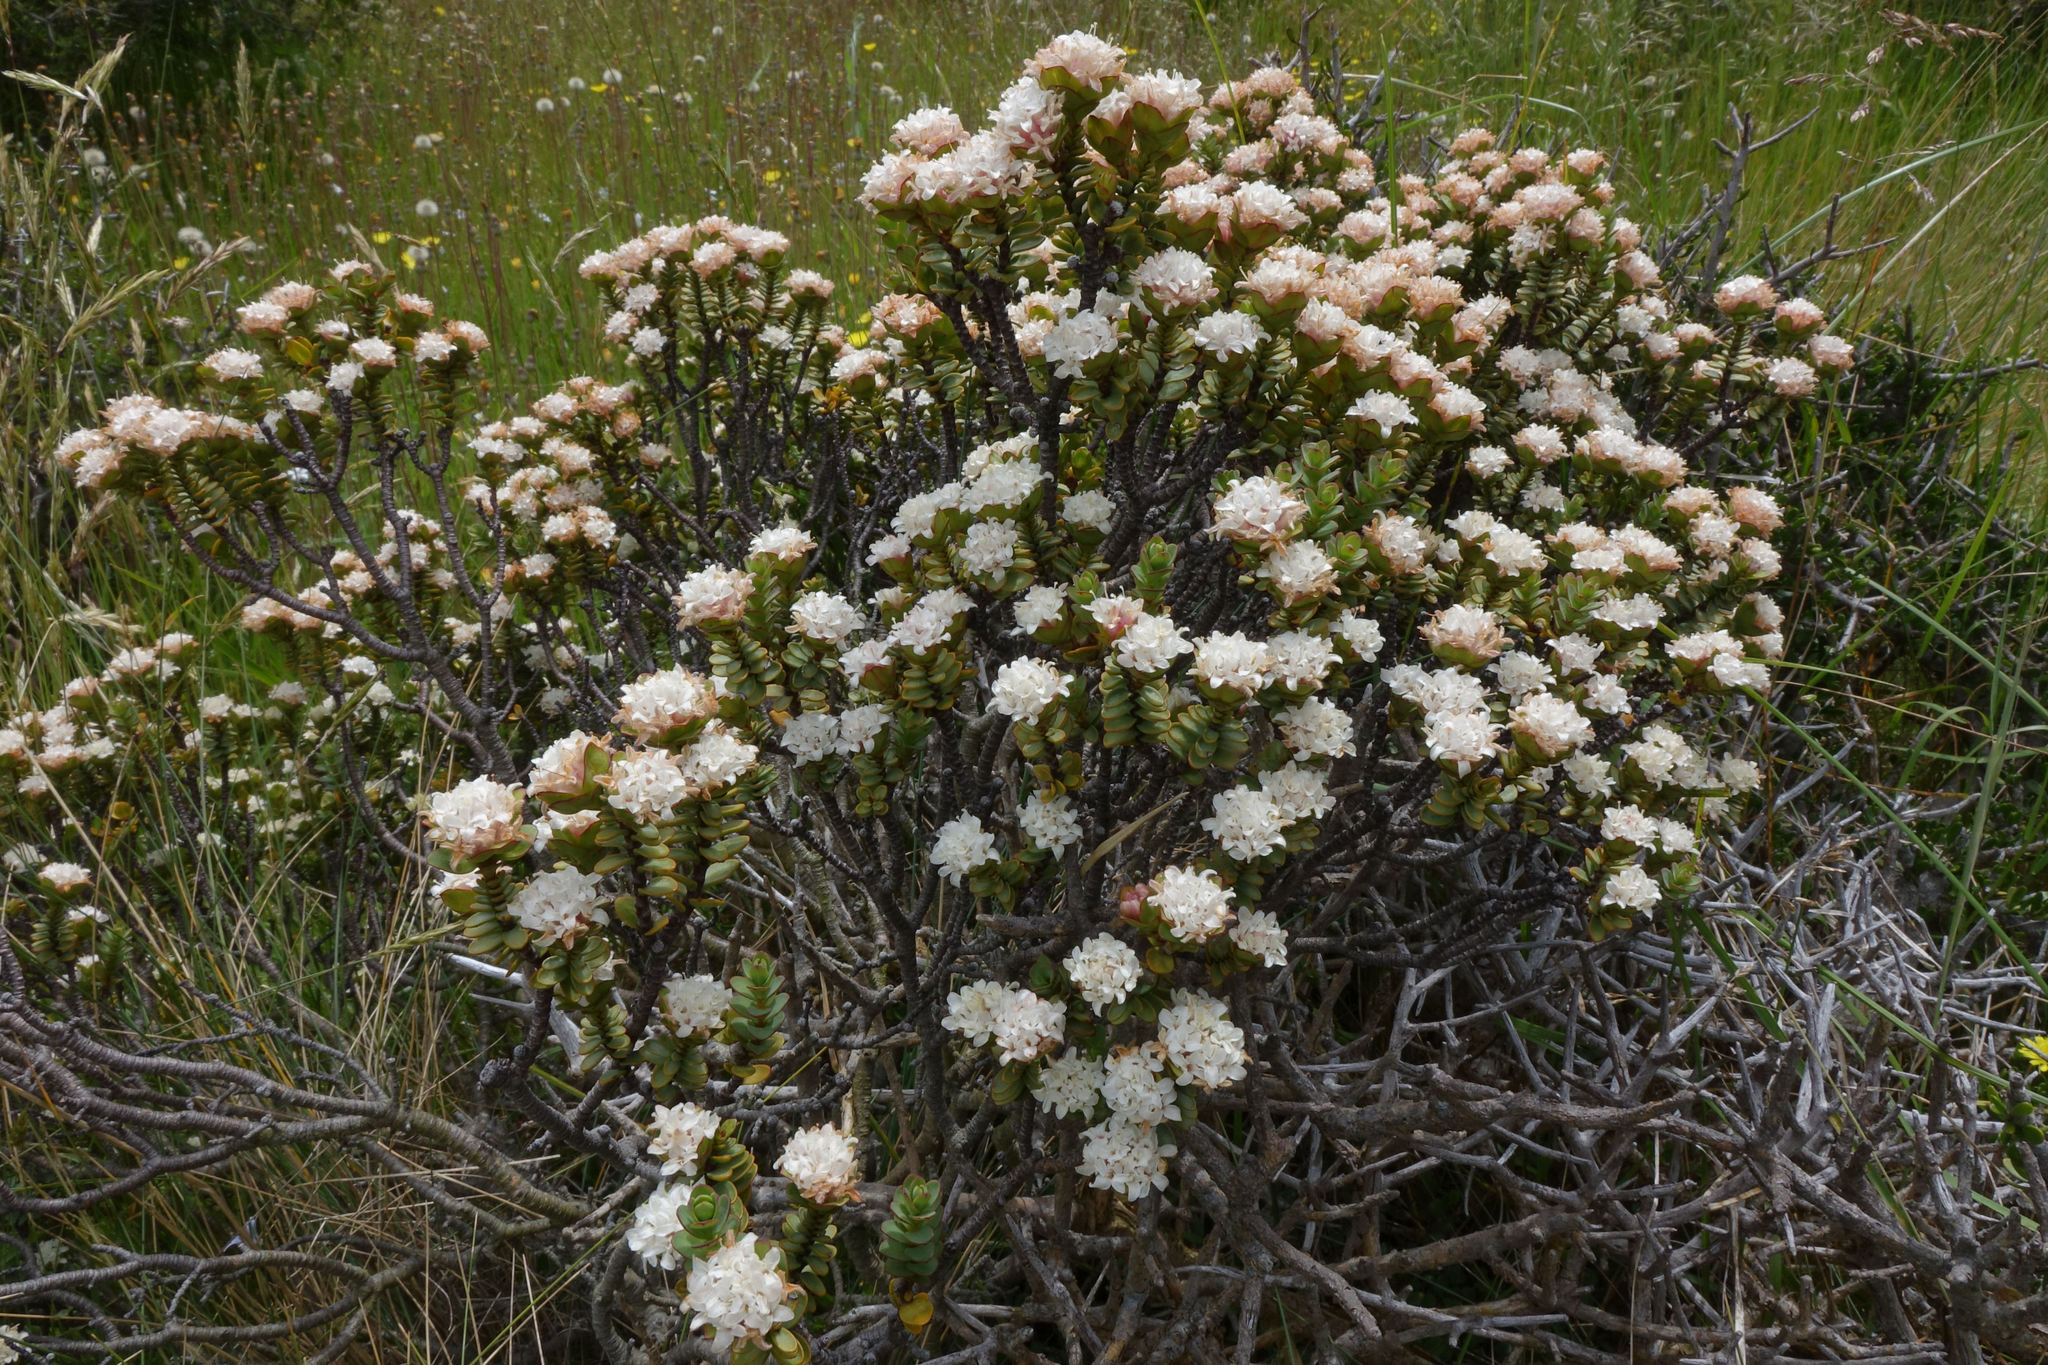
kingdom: Plantae
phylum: Tracheophyta
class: Magnoliopsida
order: Malvales
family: Thymelaeaceae
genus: Pimelea
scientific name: Pimelea traversii
